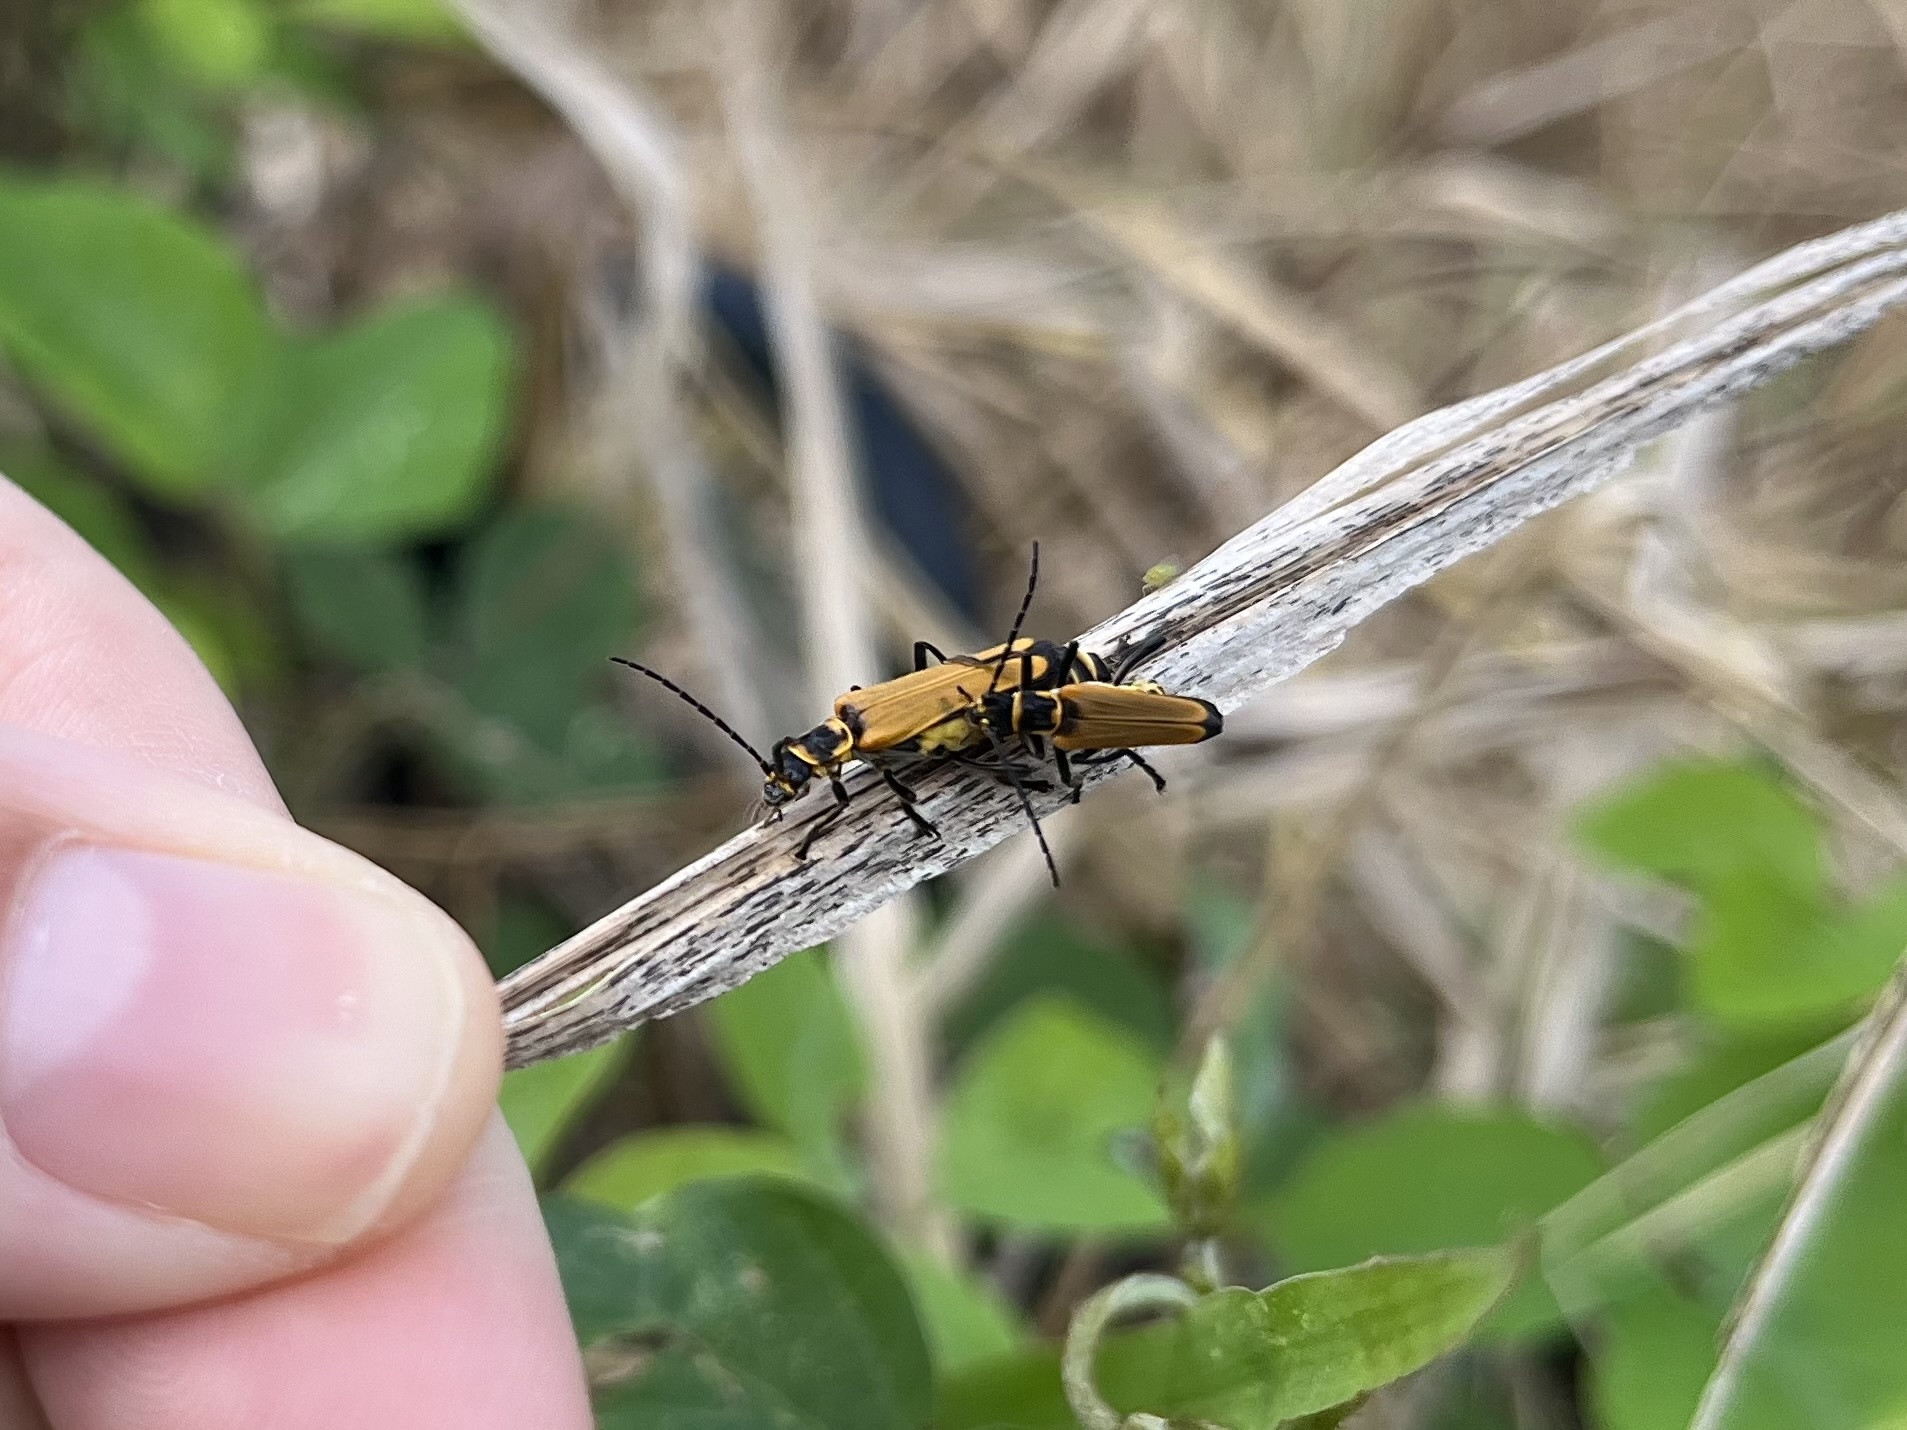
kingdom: Animalia
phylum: Arthropoda
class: Insecta
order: Coleoptera
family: Cantharidae
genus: Chauliognathus
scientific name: Chauliognathus
